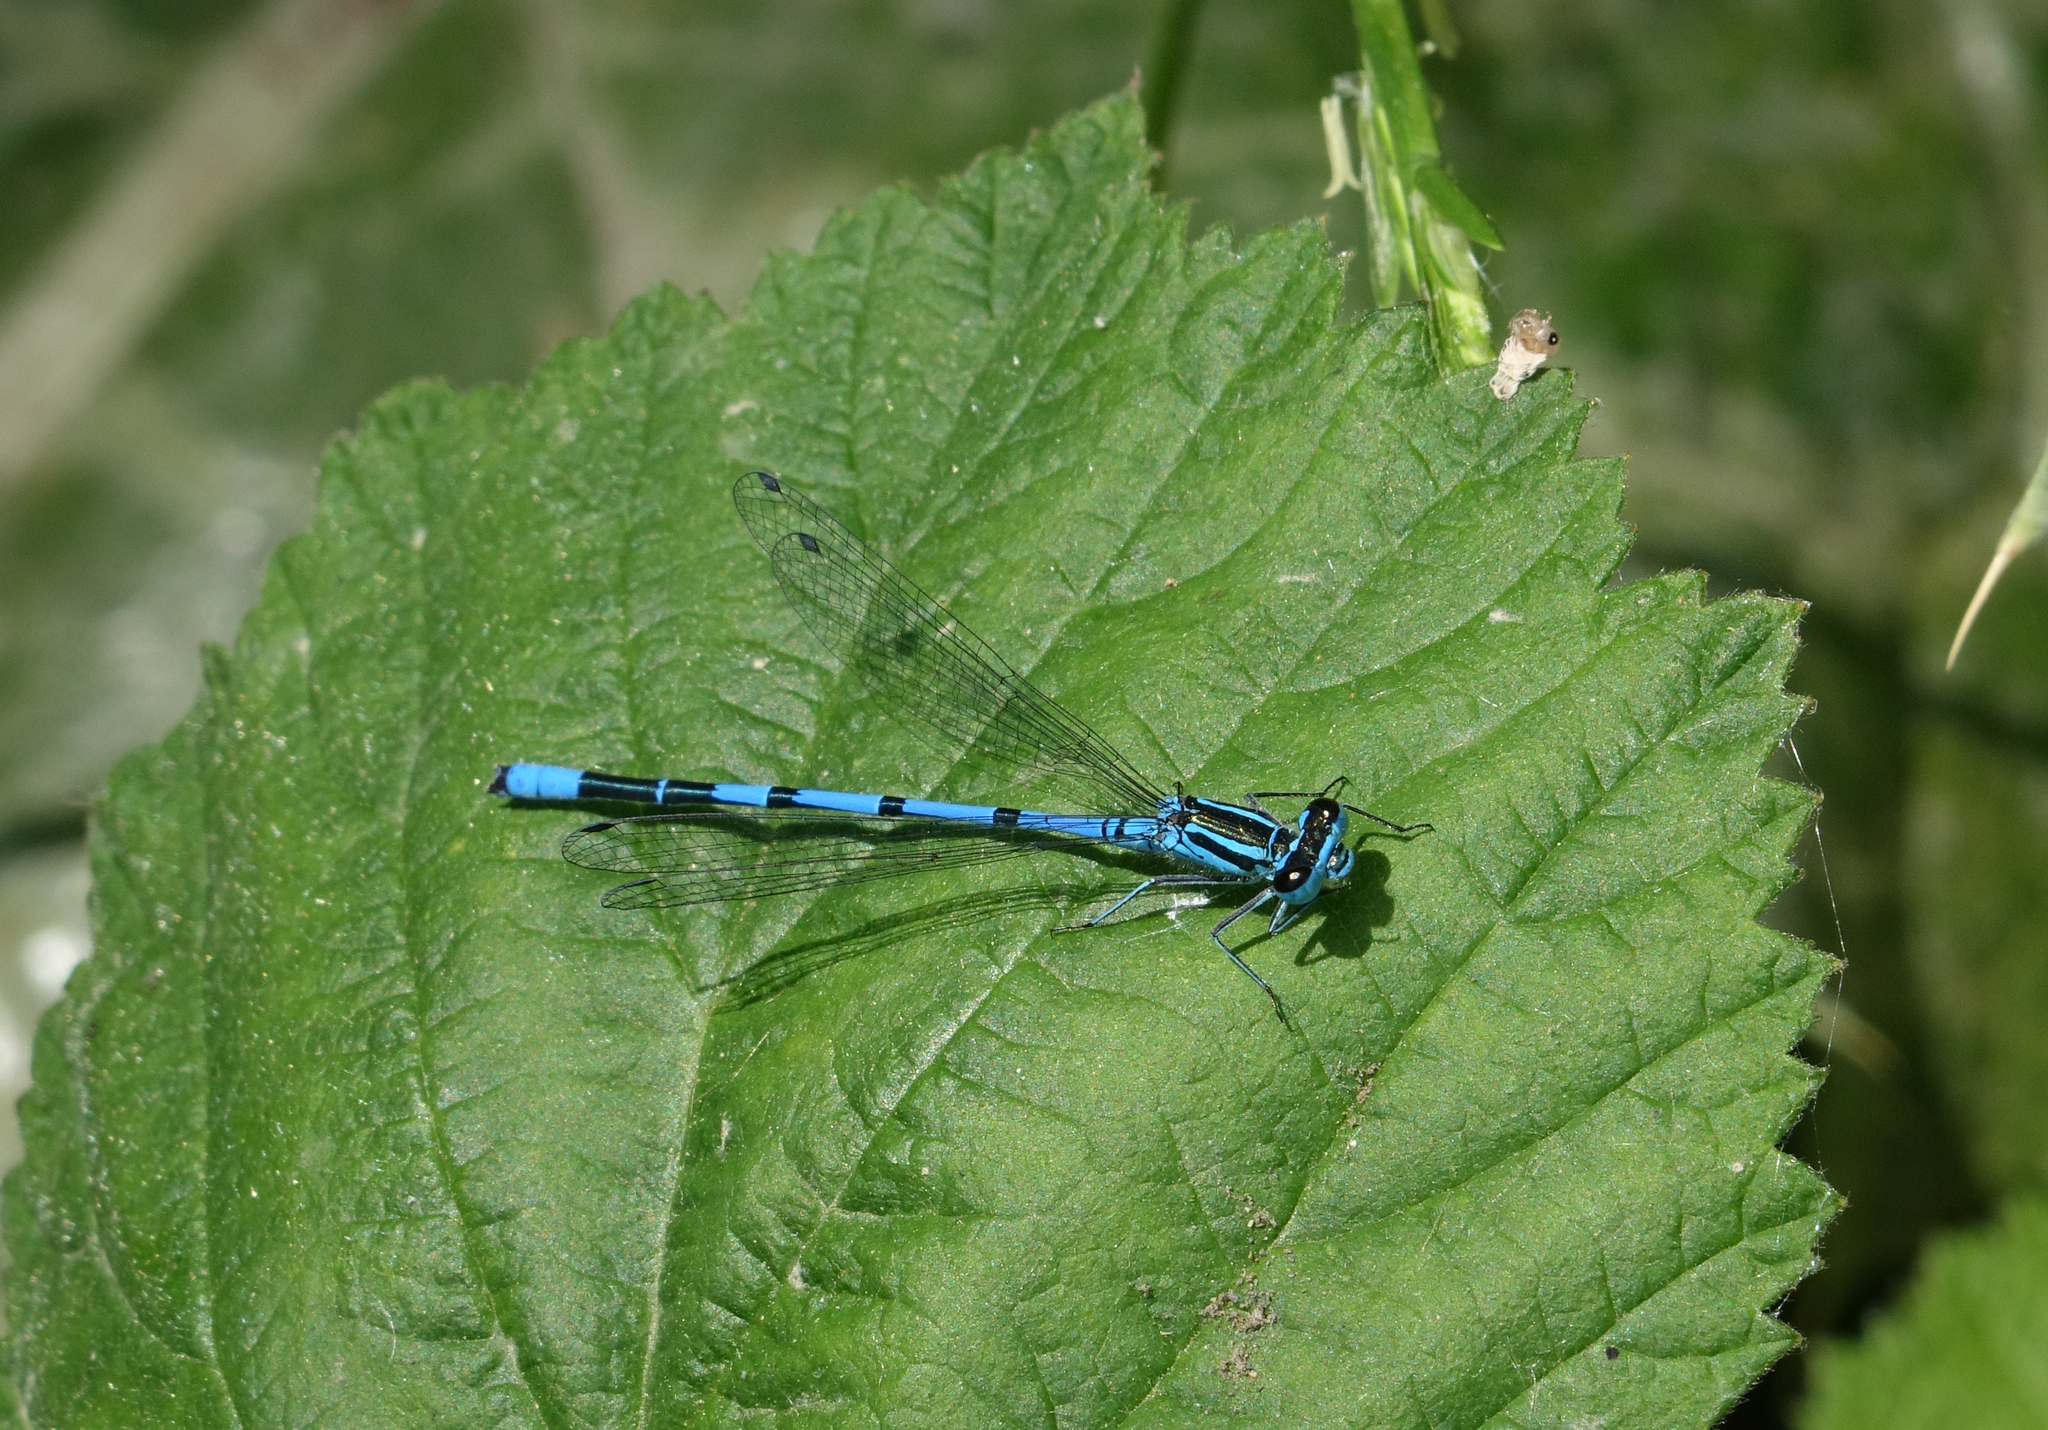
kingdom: Animalia
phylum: Arthropoda
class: Insecta
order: Odonata
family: Coenagrionidae
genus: Coenagrion
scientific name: Coenagrion australocaspicum
